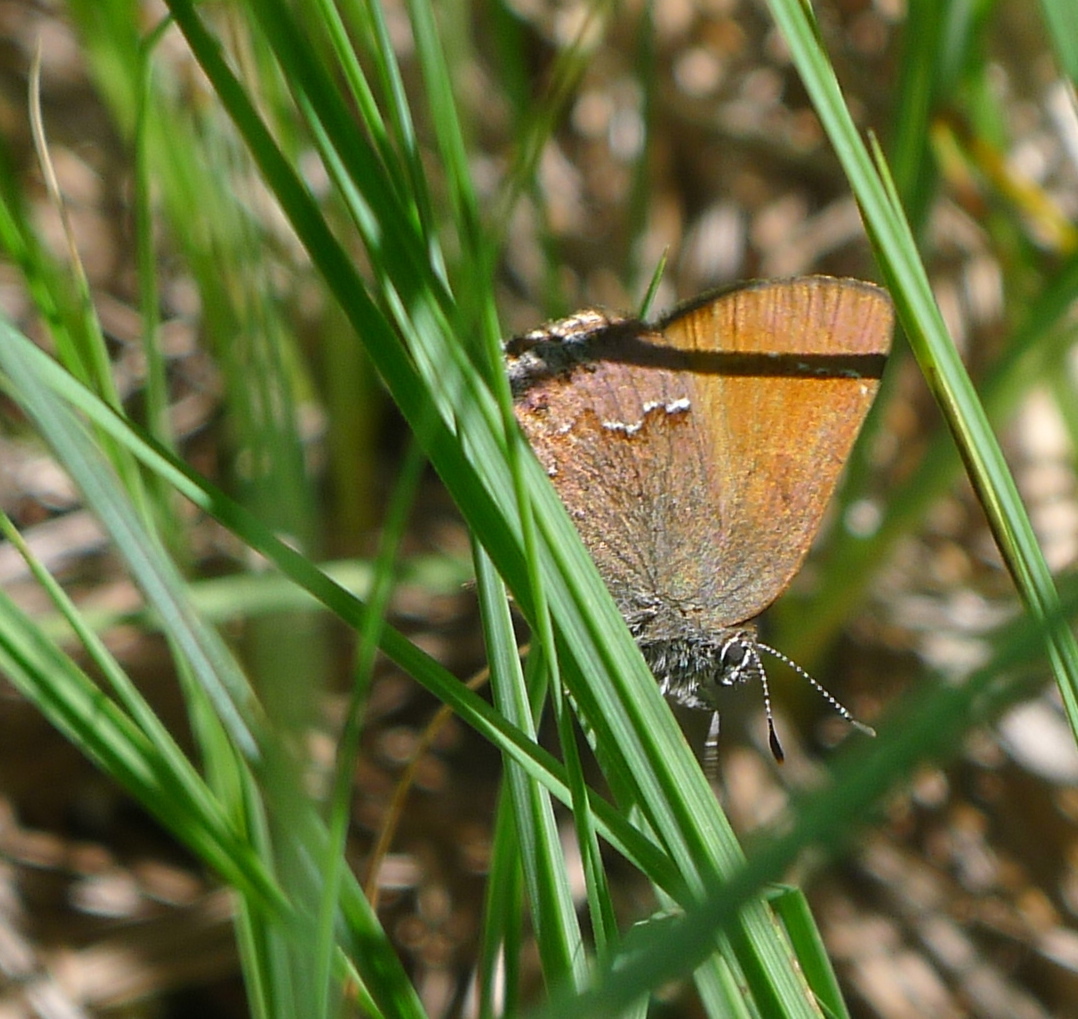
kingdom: Animalia
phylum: Arthropoda
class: Insecta
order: Lepidoptera
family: Lycaenidae
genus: Callophrys
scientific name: Callophrys muiri
